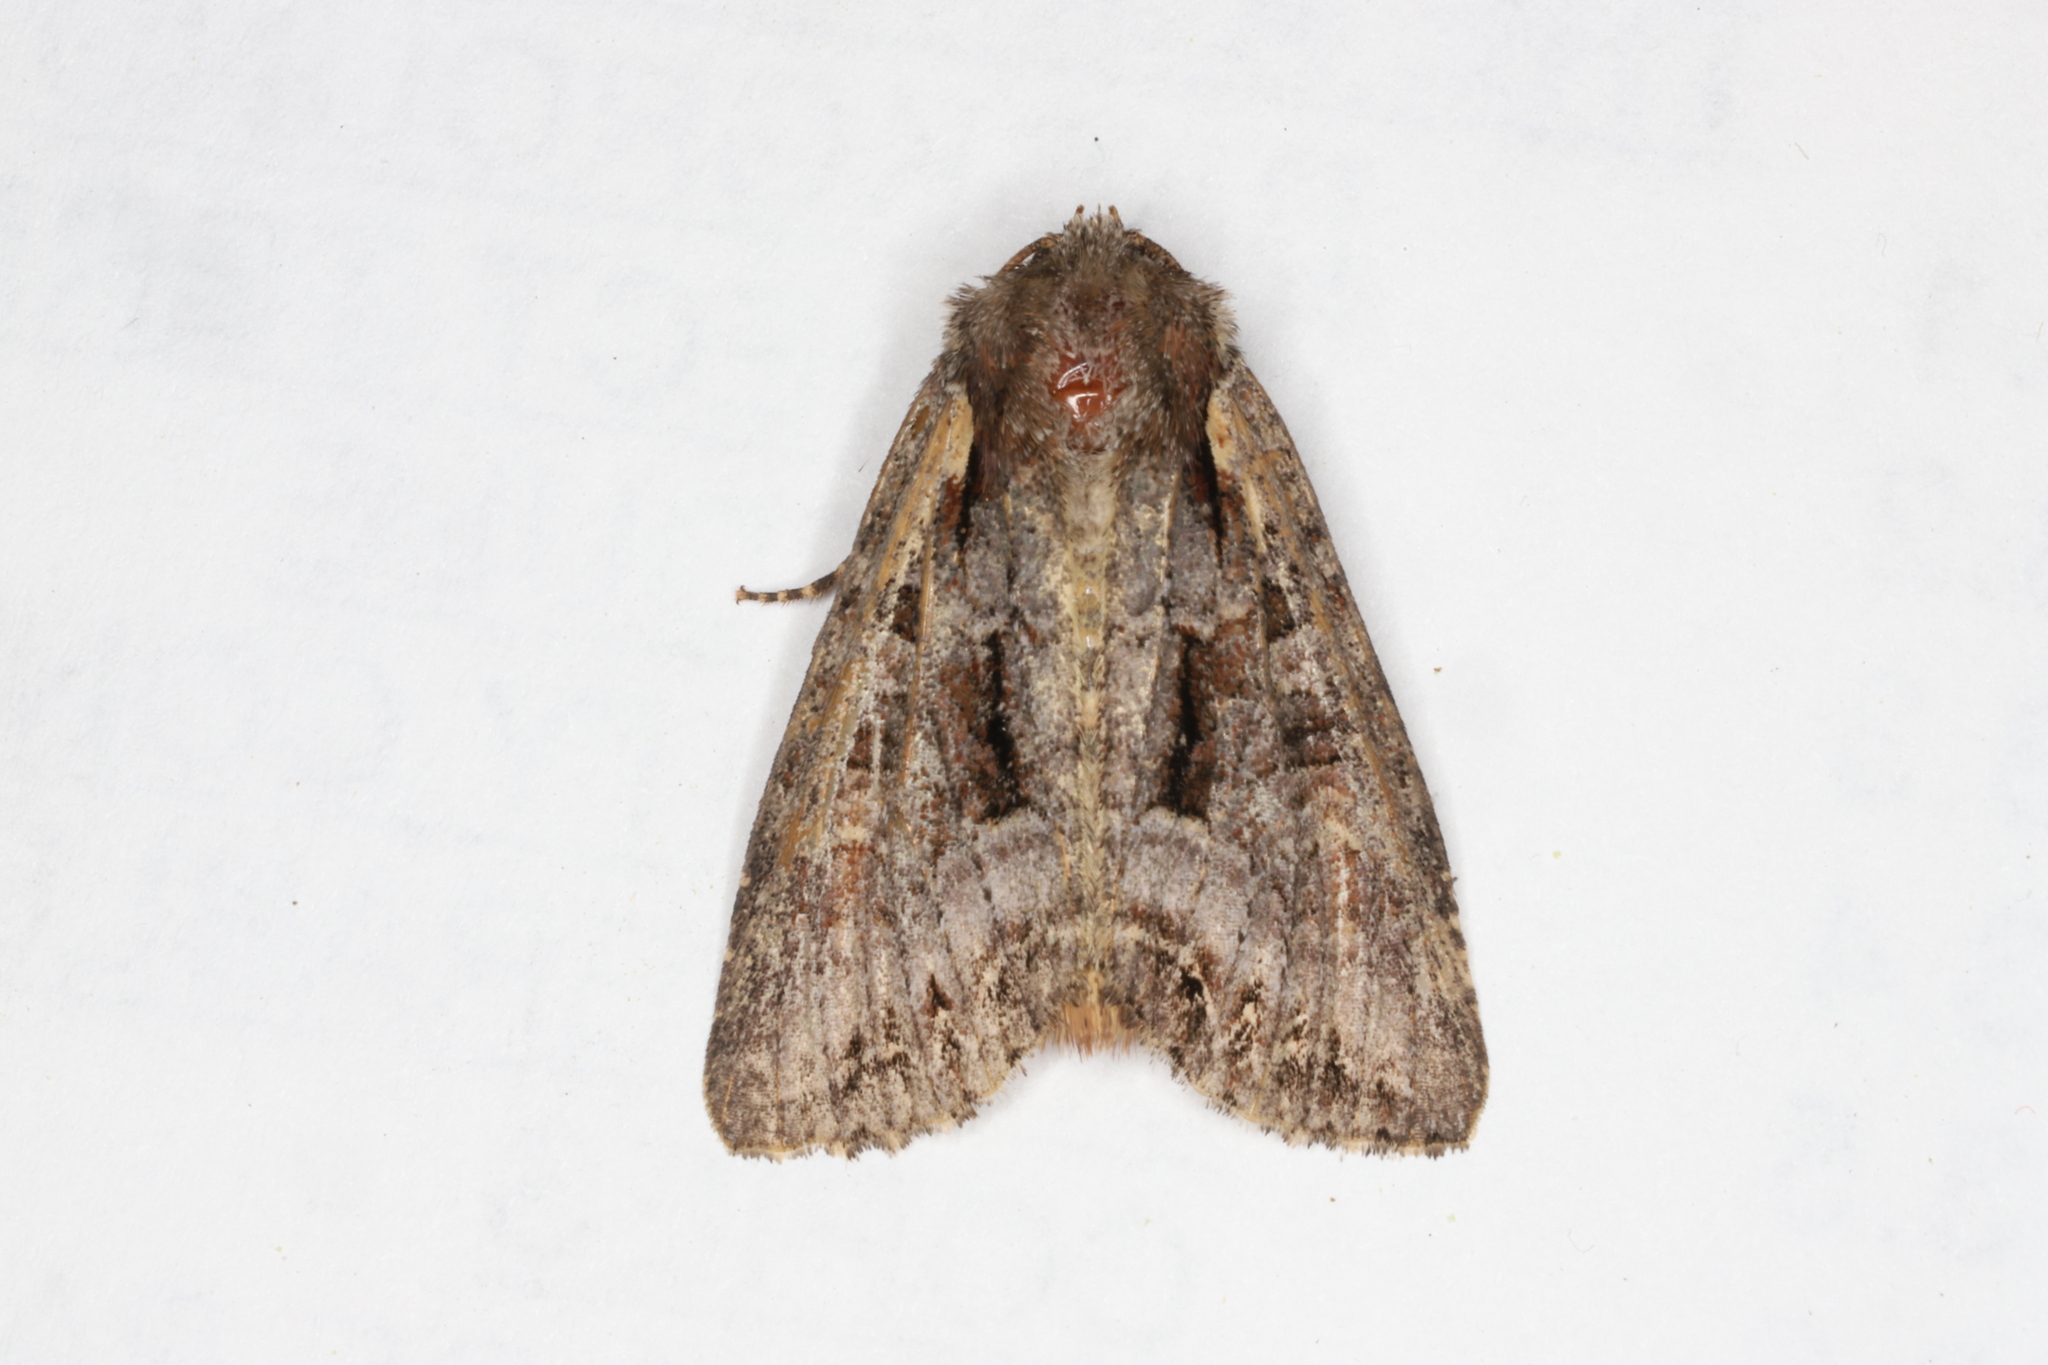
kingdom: Animalia
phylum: Arthropoda
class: Insecta
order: Lepidoptera
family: Noctuidae
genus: Lacanobia
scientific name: Lacanobia grandis
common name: Grand arches moth
